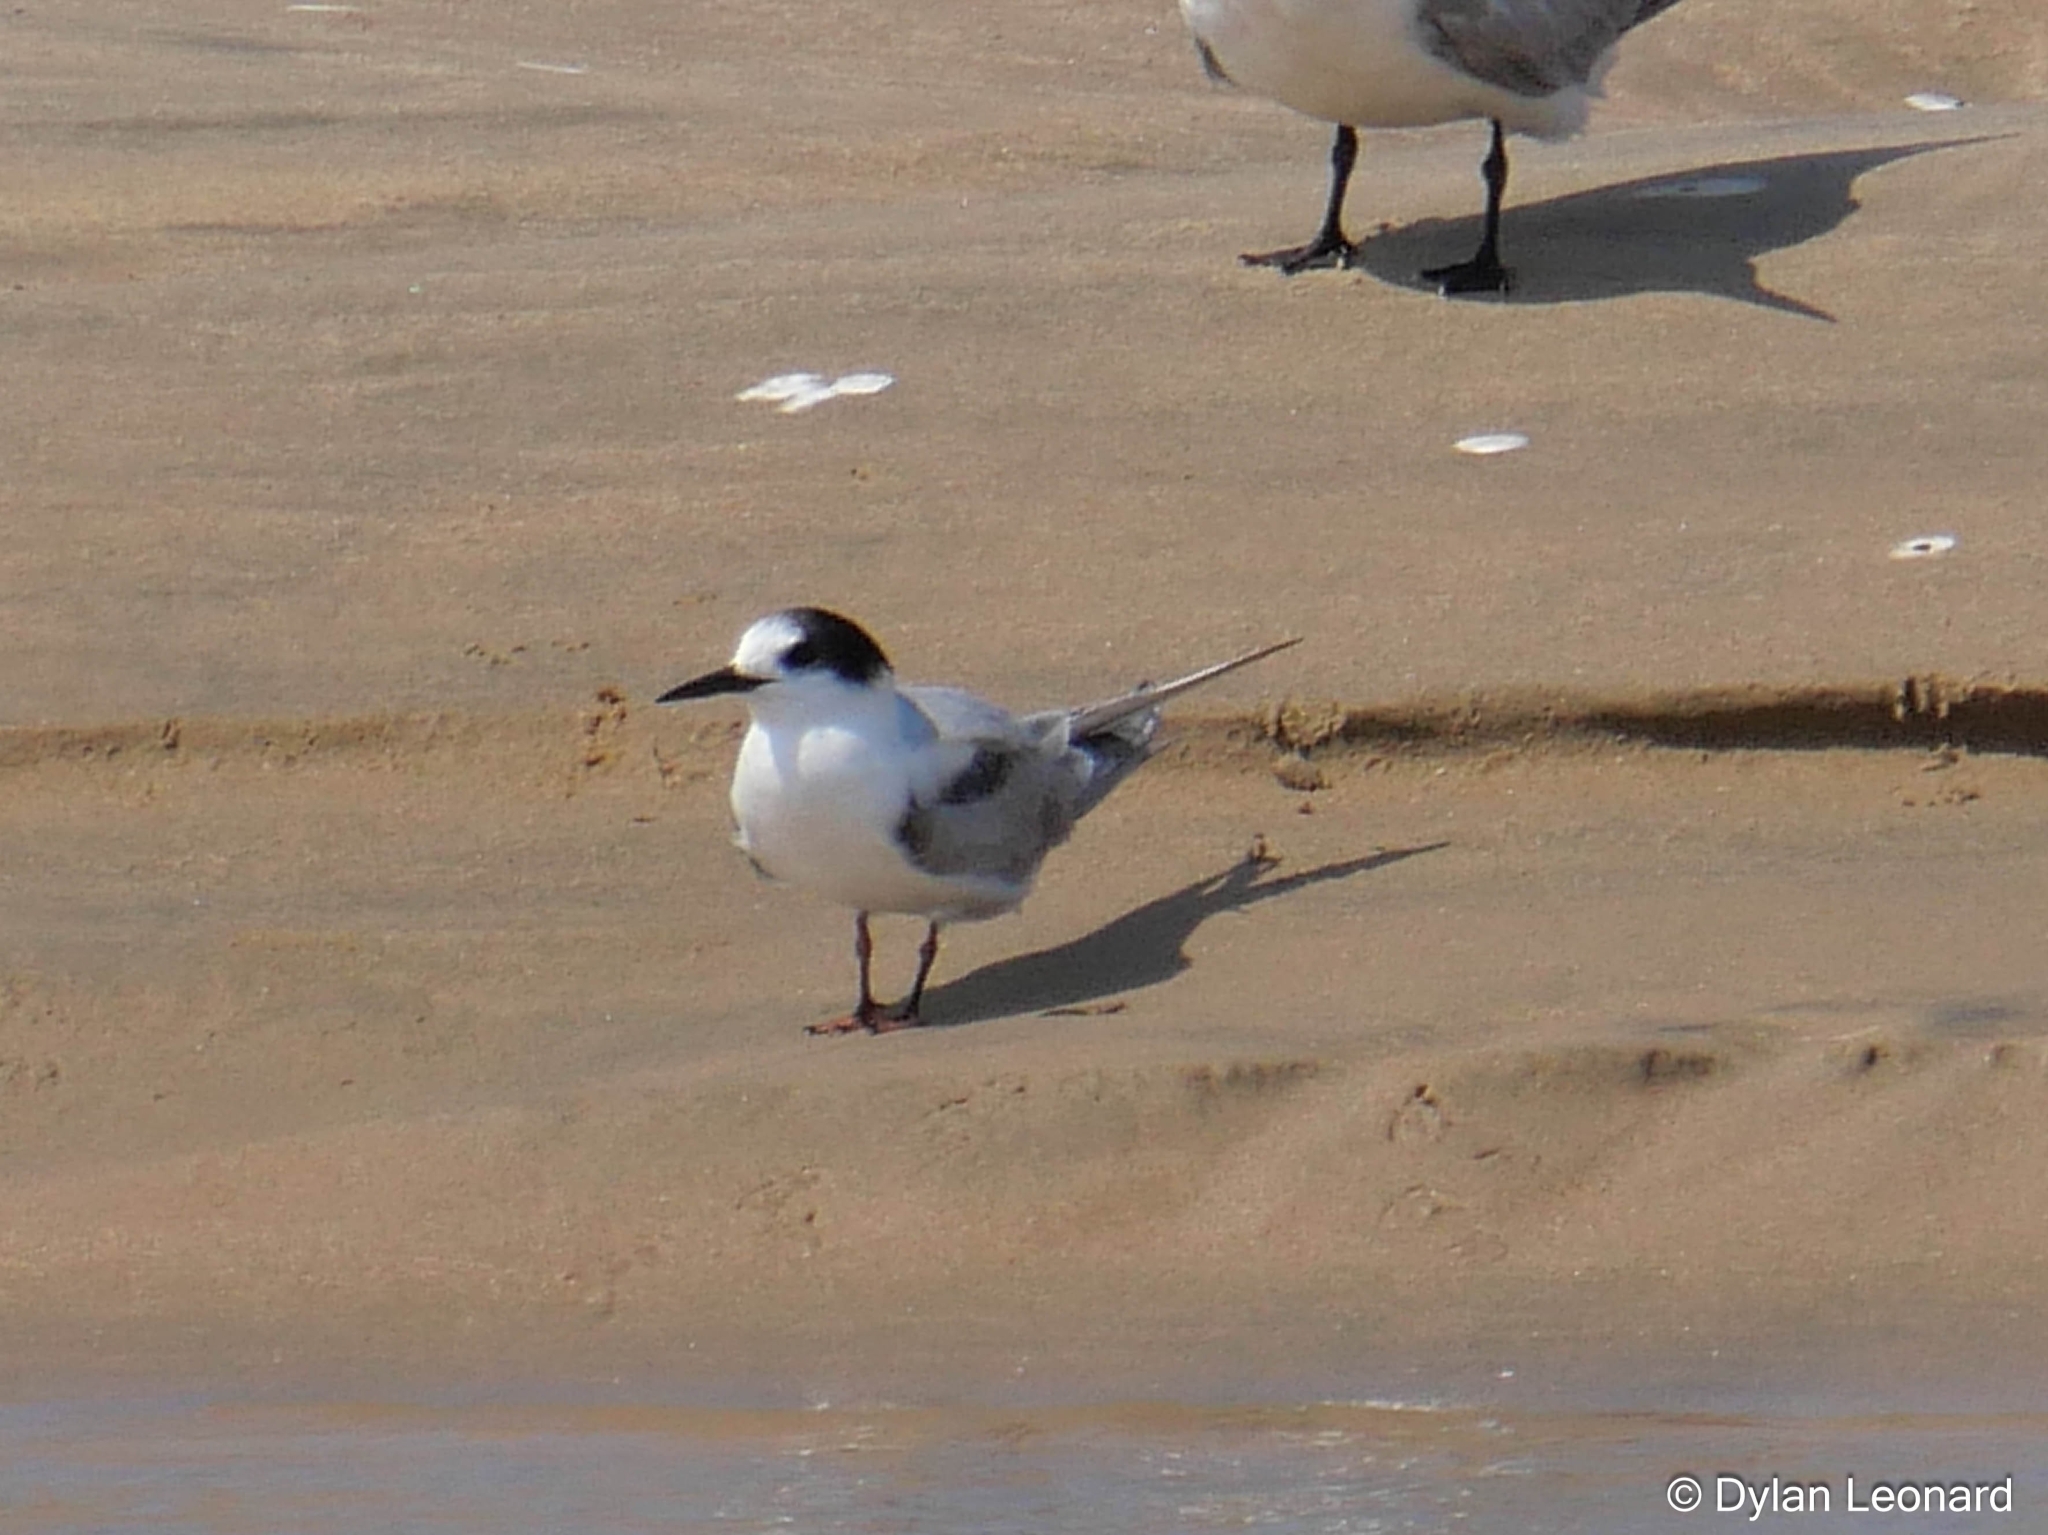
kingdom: Animalia
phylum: Chordata
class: Aves
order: Charadriiformes
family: Laridae
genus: Sterna
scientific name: Sterna hirundo
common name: Common tern
